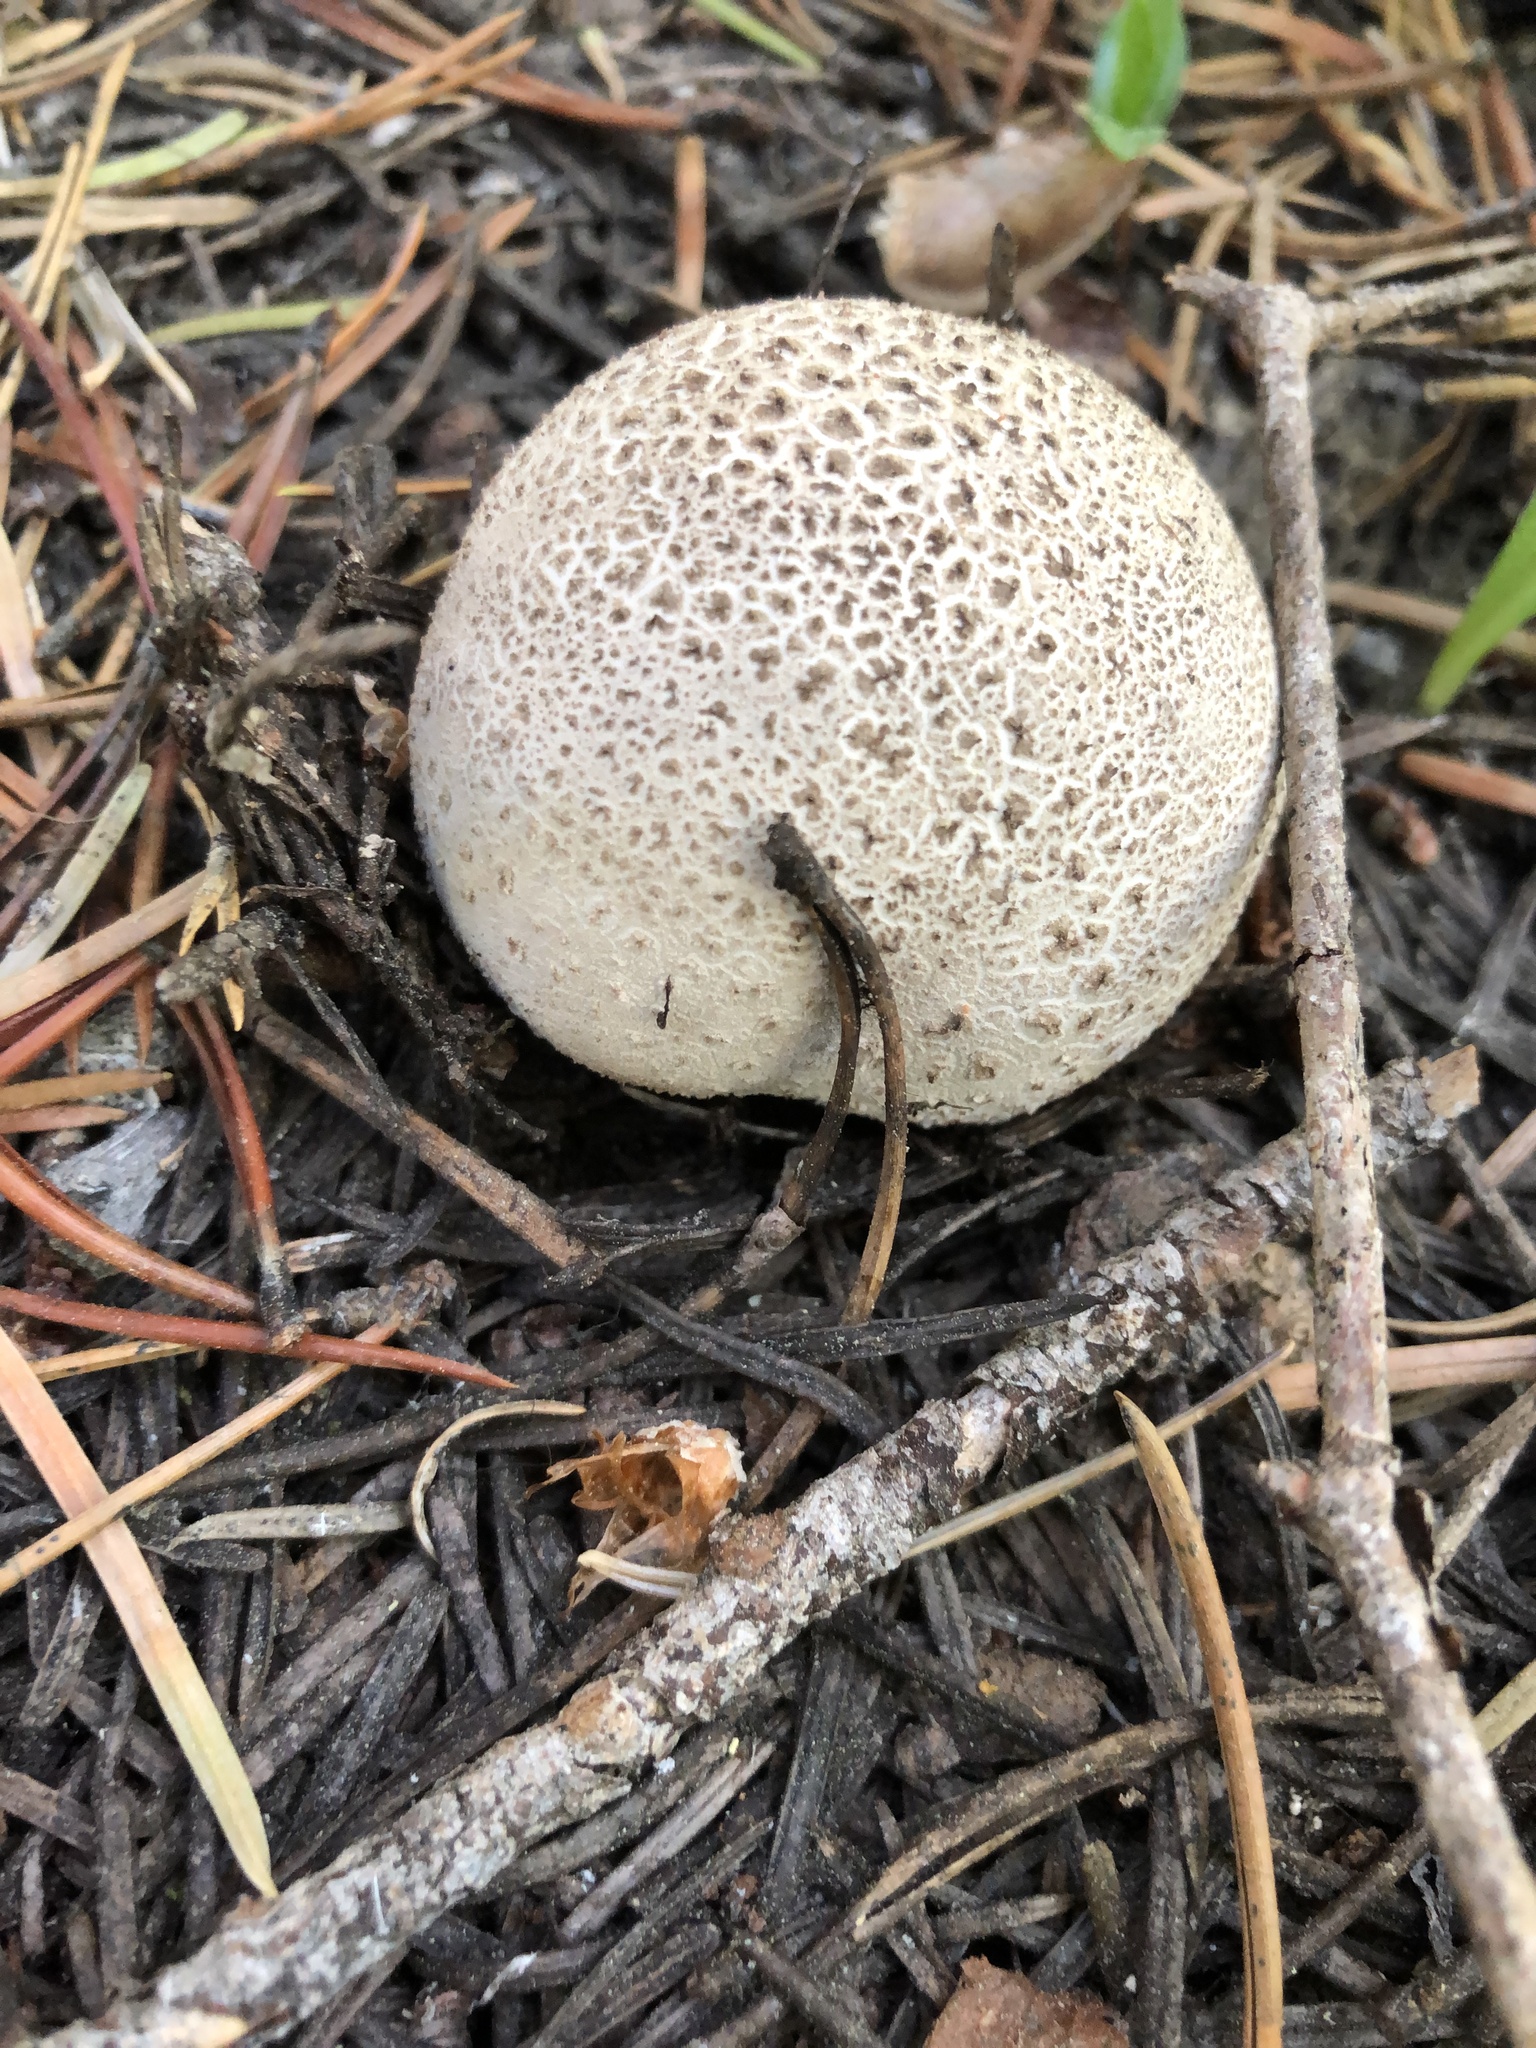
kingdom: Fungi
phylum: Basidiomycota
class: Agaricomycetes
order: Agaricales
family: Lycoperdaceae
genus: Lycoperdon
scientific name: Lycoperdon subcretaceum
